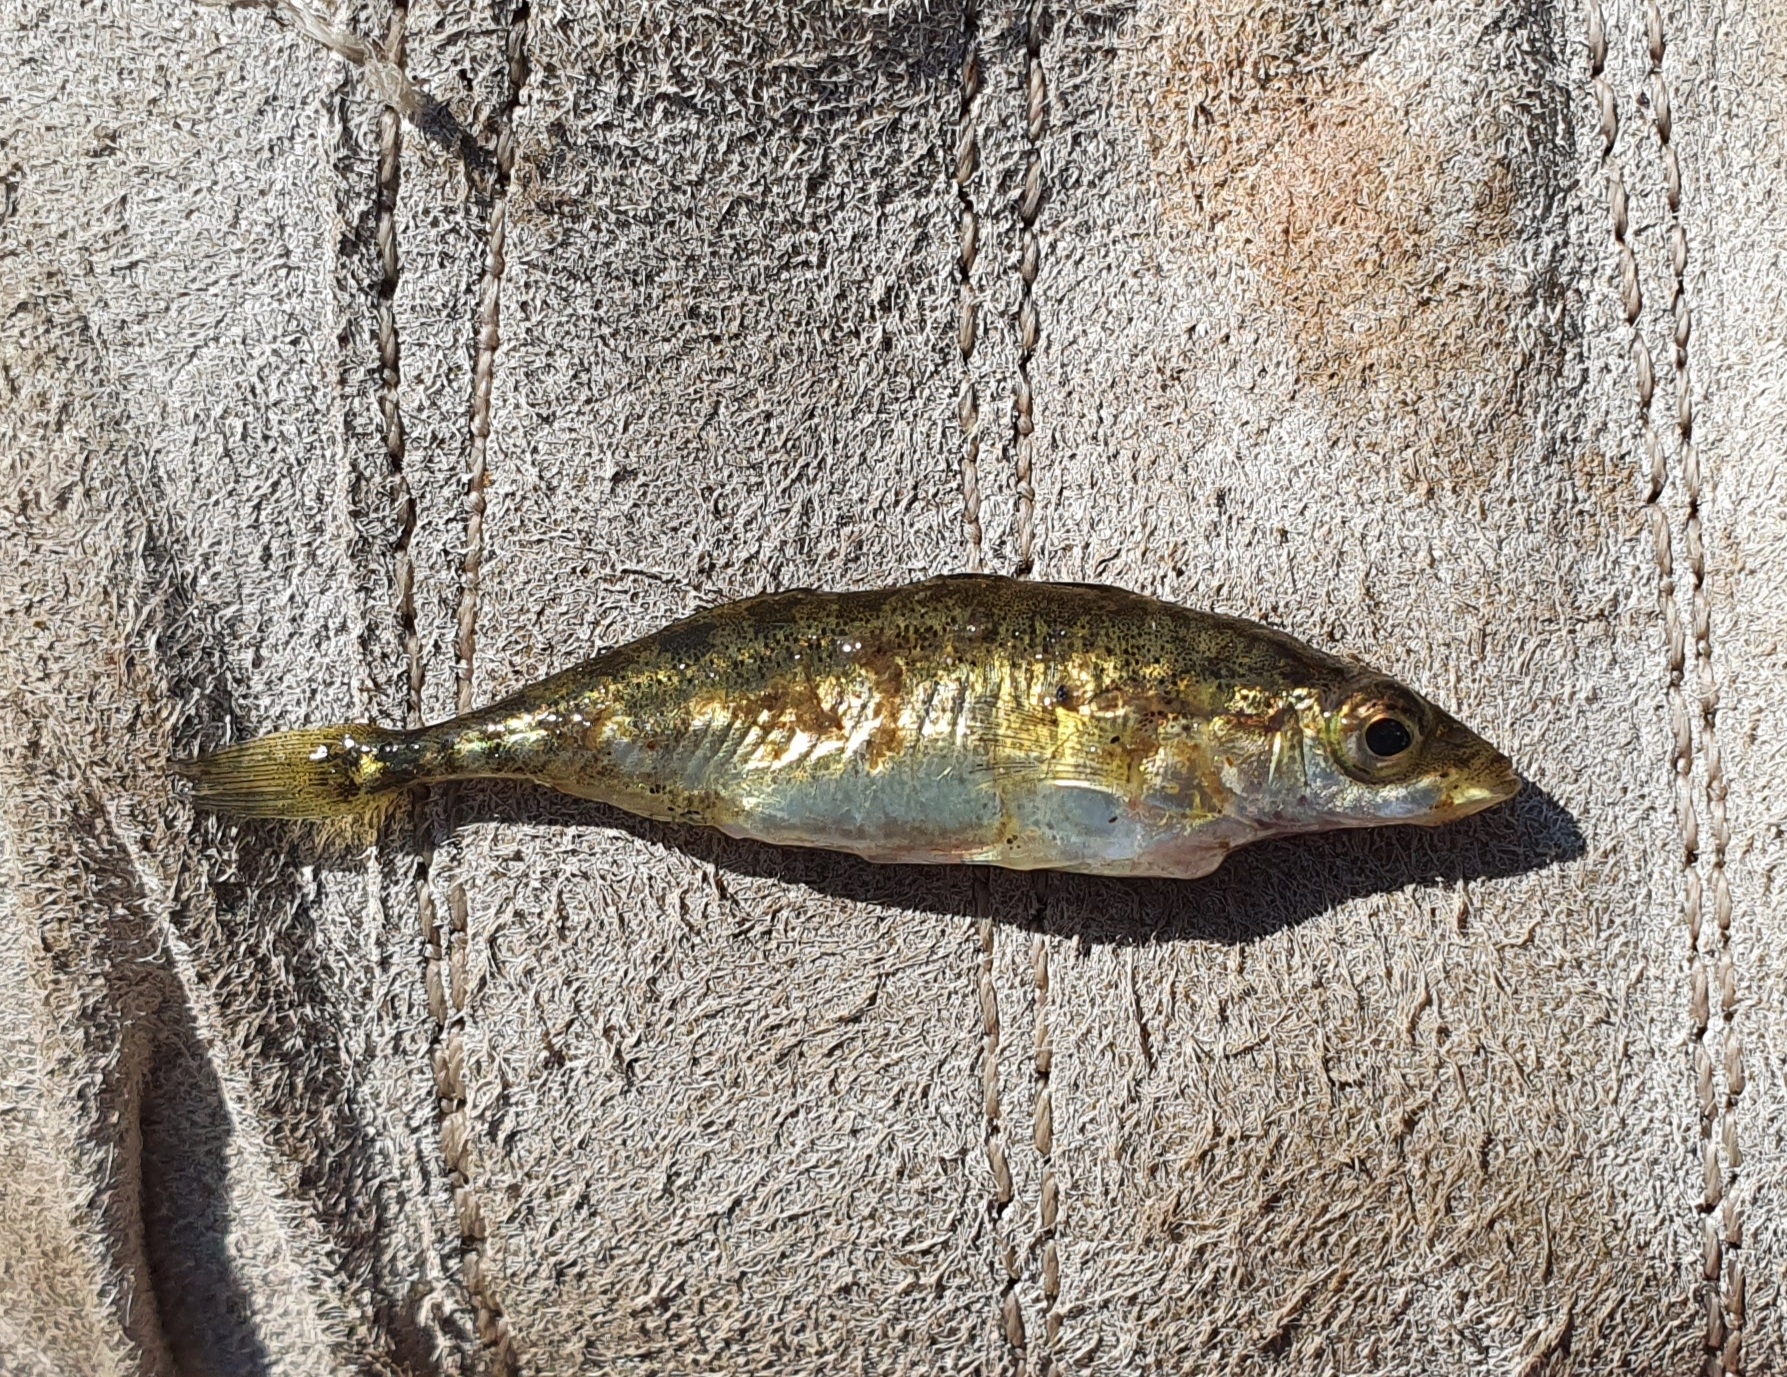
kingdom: Animalia
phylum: Chordata
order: Gasterosteiformes
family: Gasterosteidae
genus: Gasterosteus
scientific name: Gasterosteus aculeatus
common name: Three-spined stickleback
